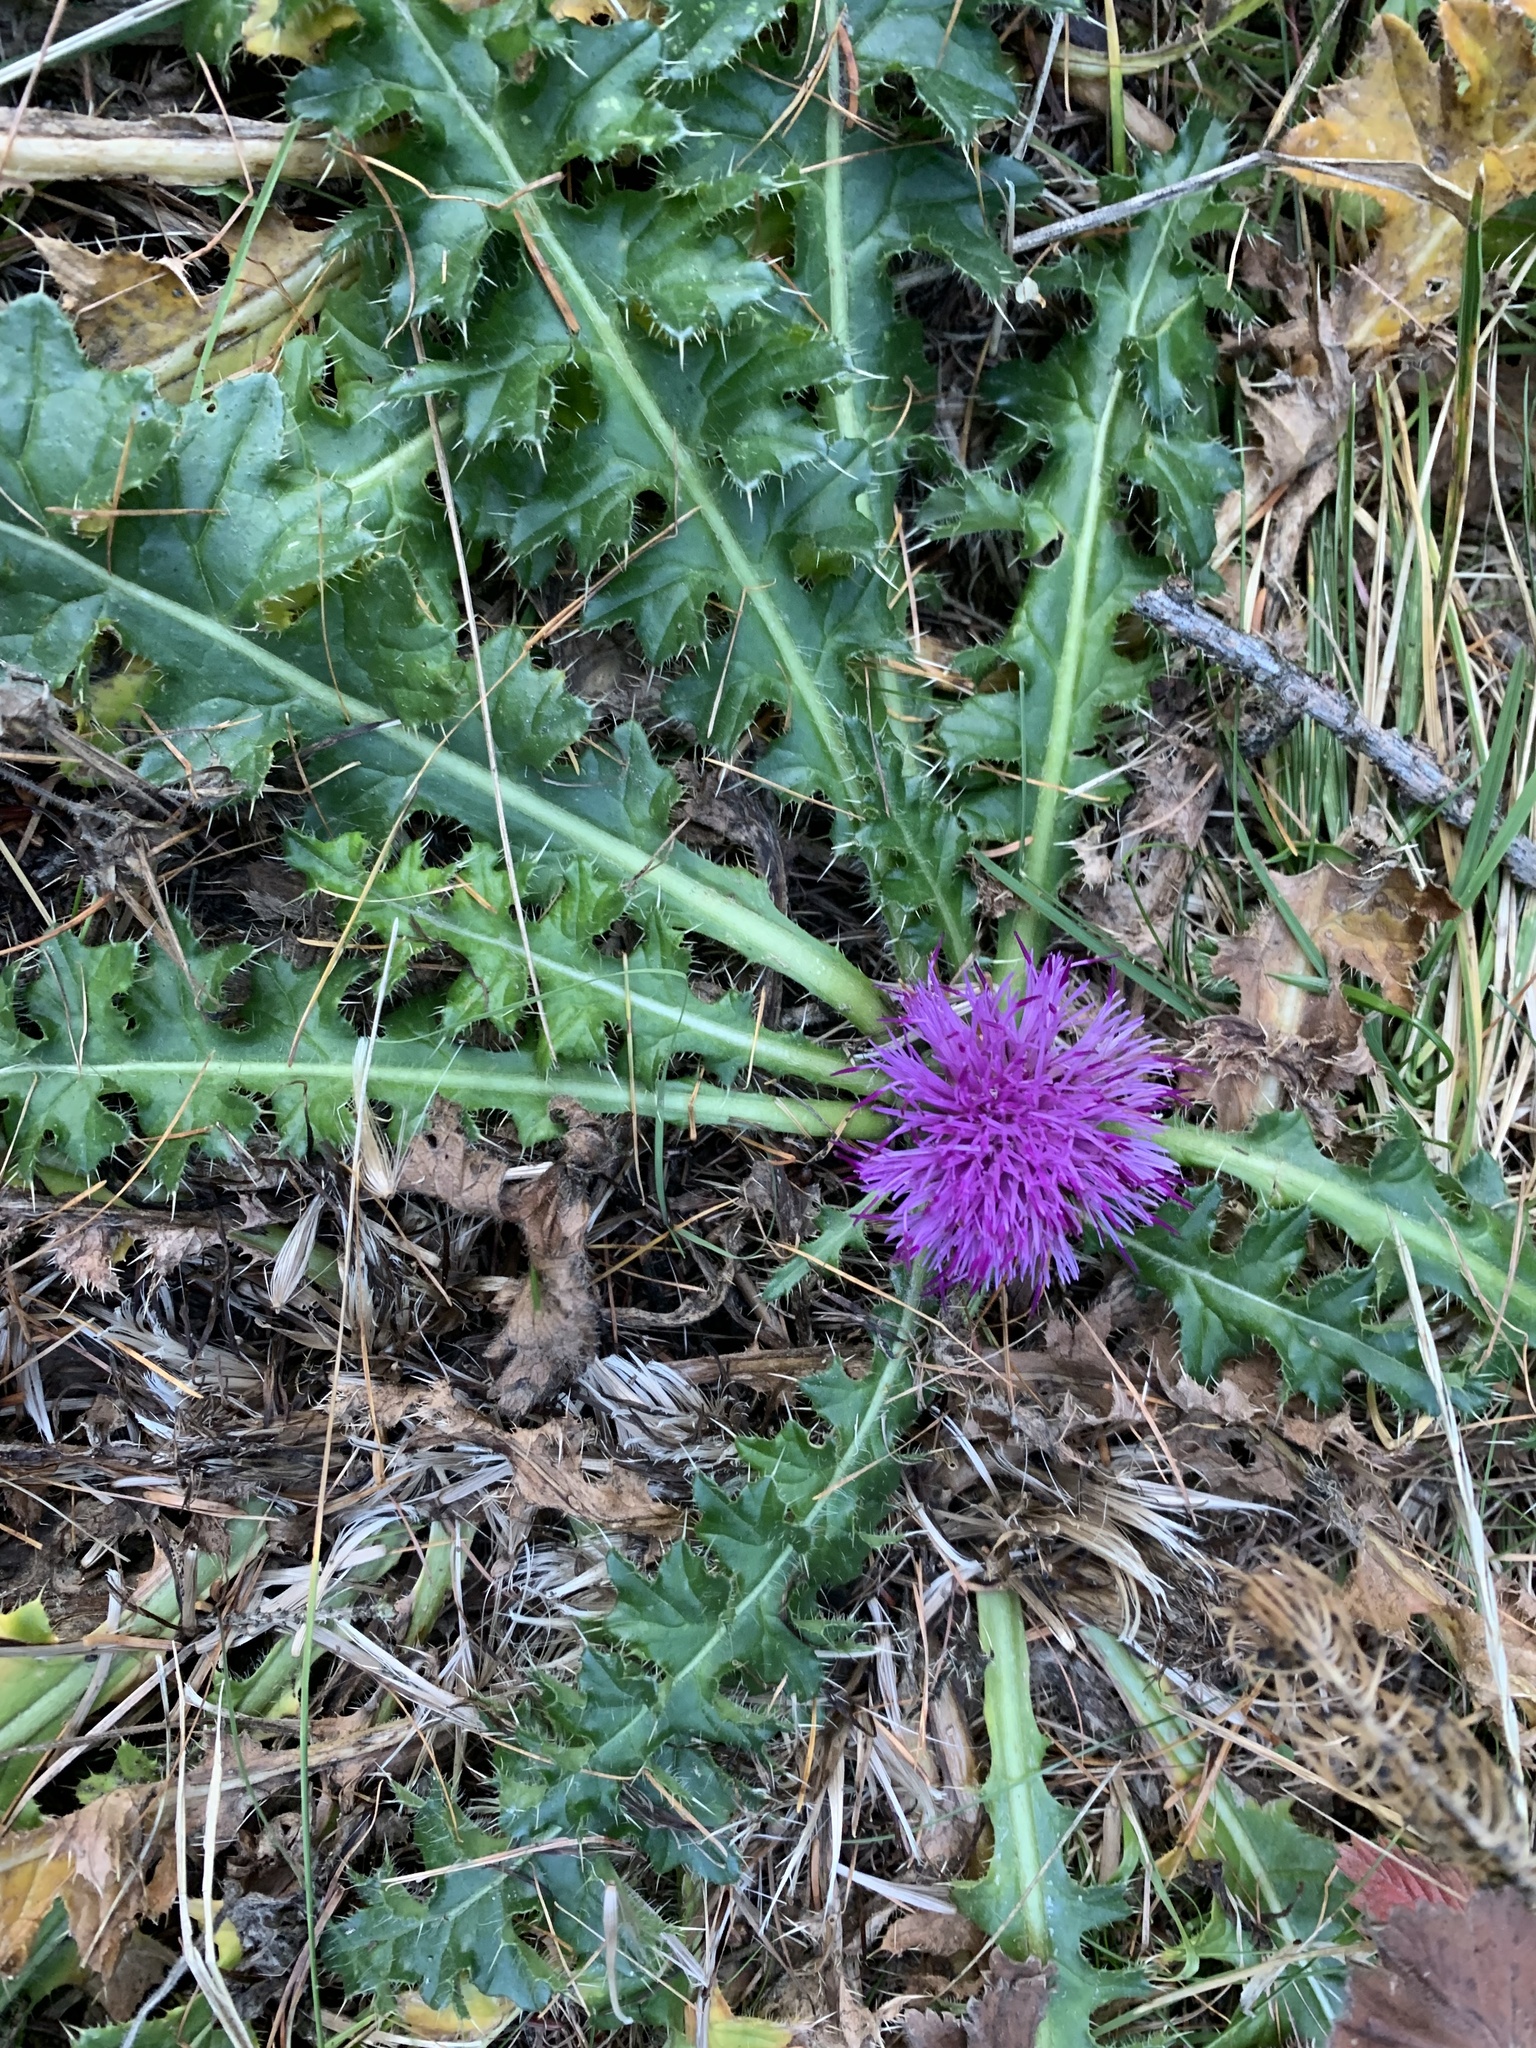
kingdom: Plantae
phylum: Tracheophyta
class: Magnoliopsida
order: Asterales
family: Asteraceae
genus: Cirsium
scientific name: Cirsium acaulon
